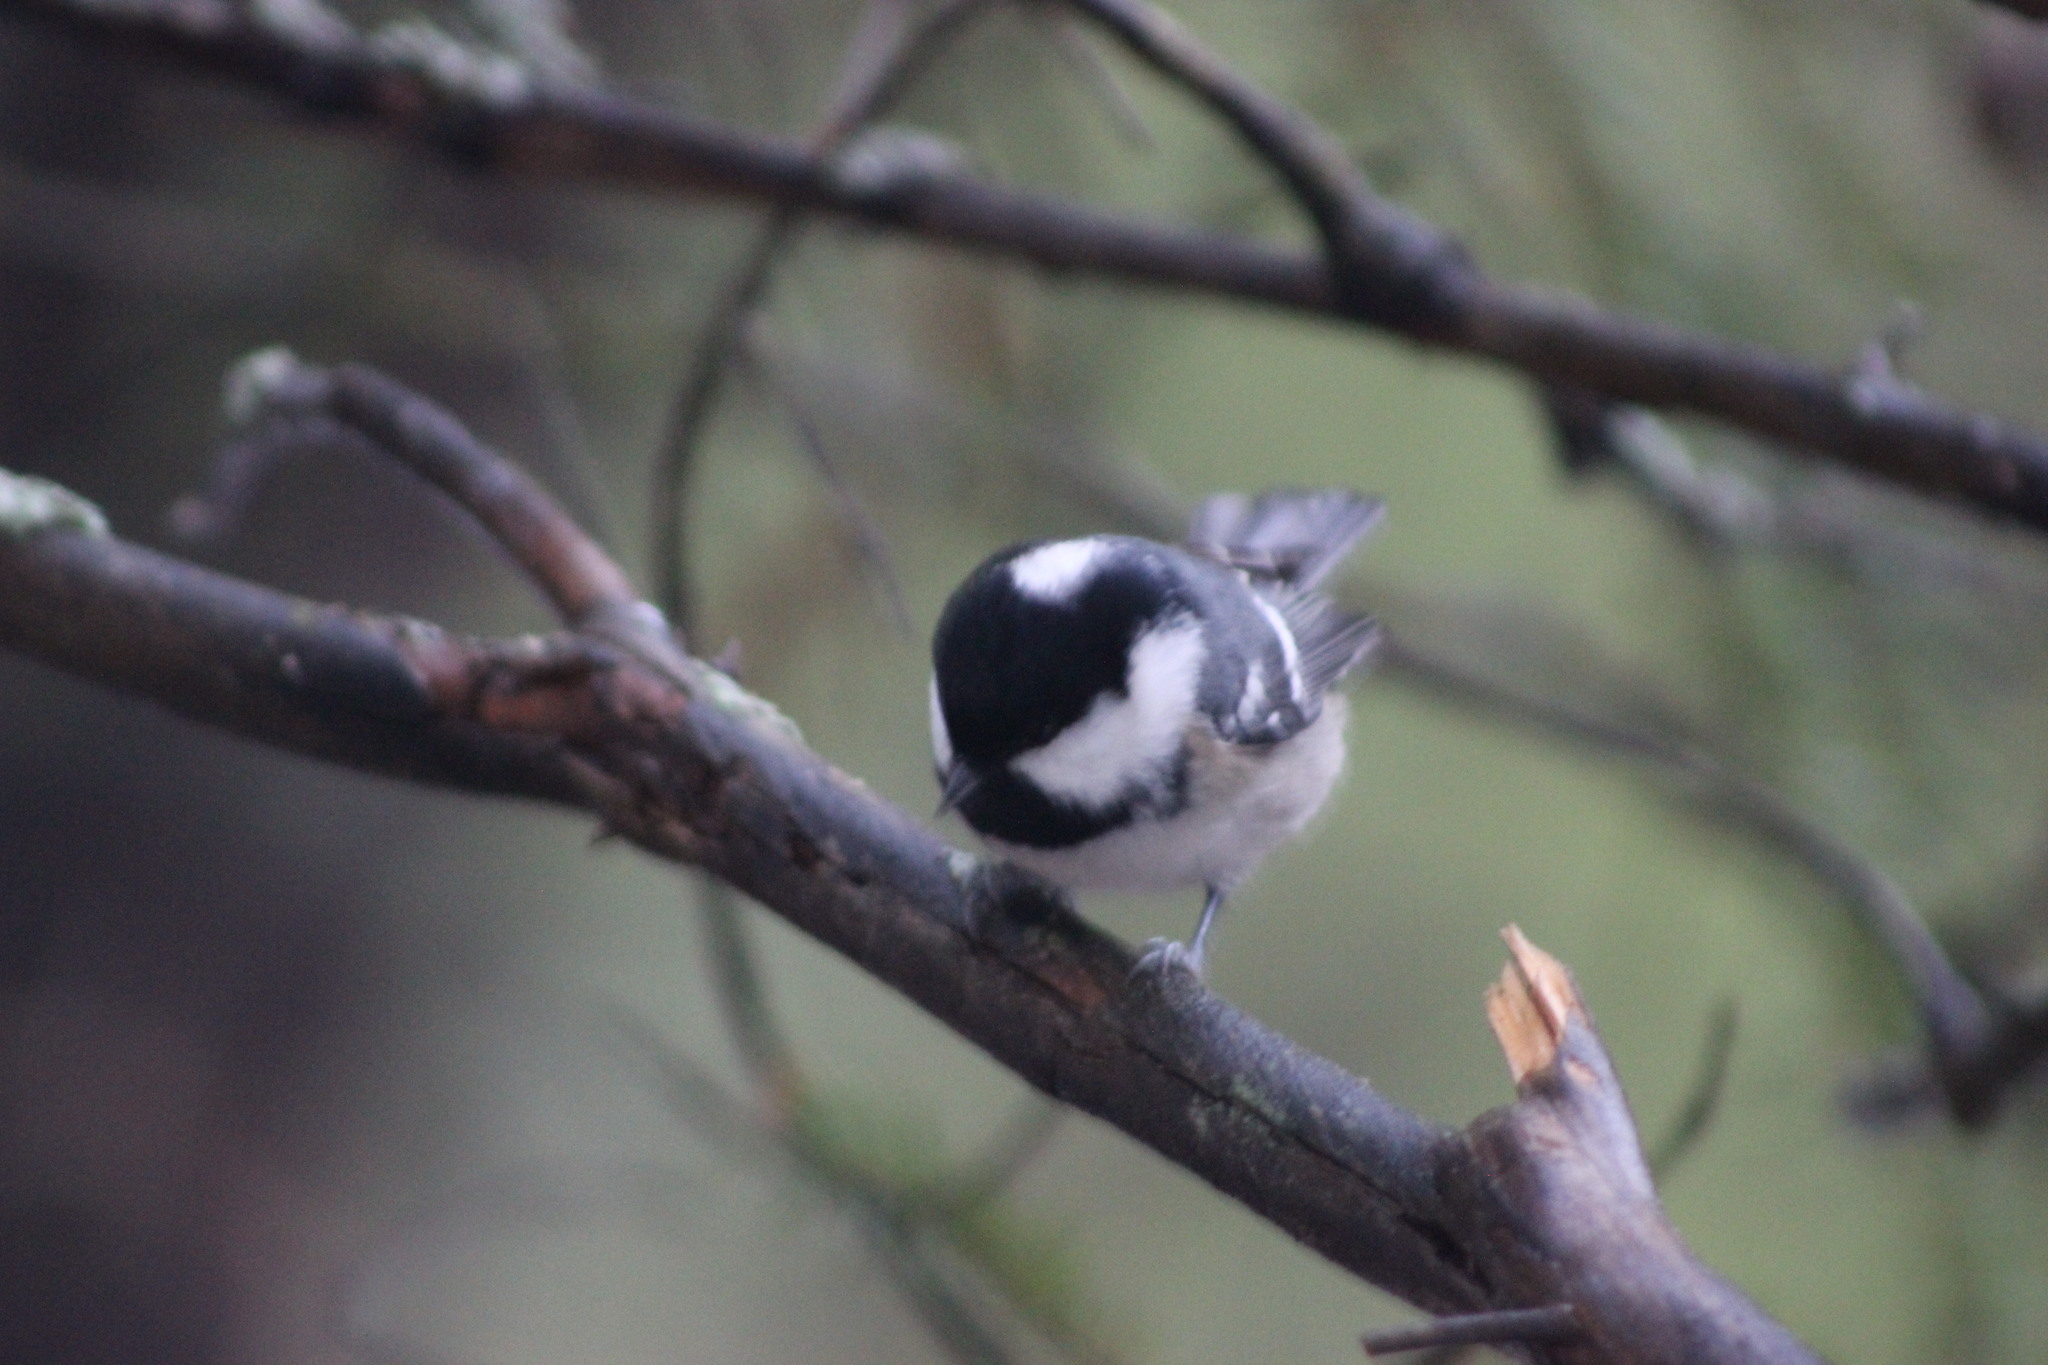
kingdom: Animalia
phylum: Chordata
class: Aves
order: Passeriformes
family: Paridae
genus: Periparus
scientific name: Periparus ater
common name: Coal tit
